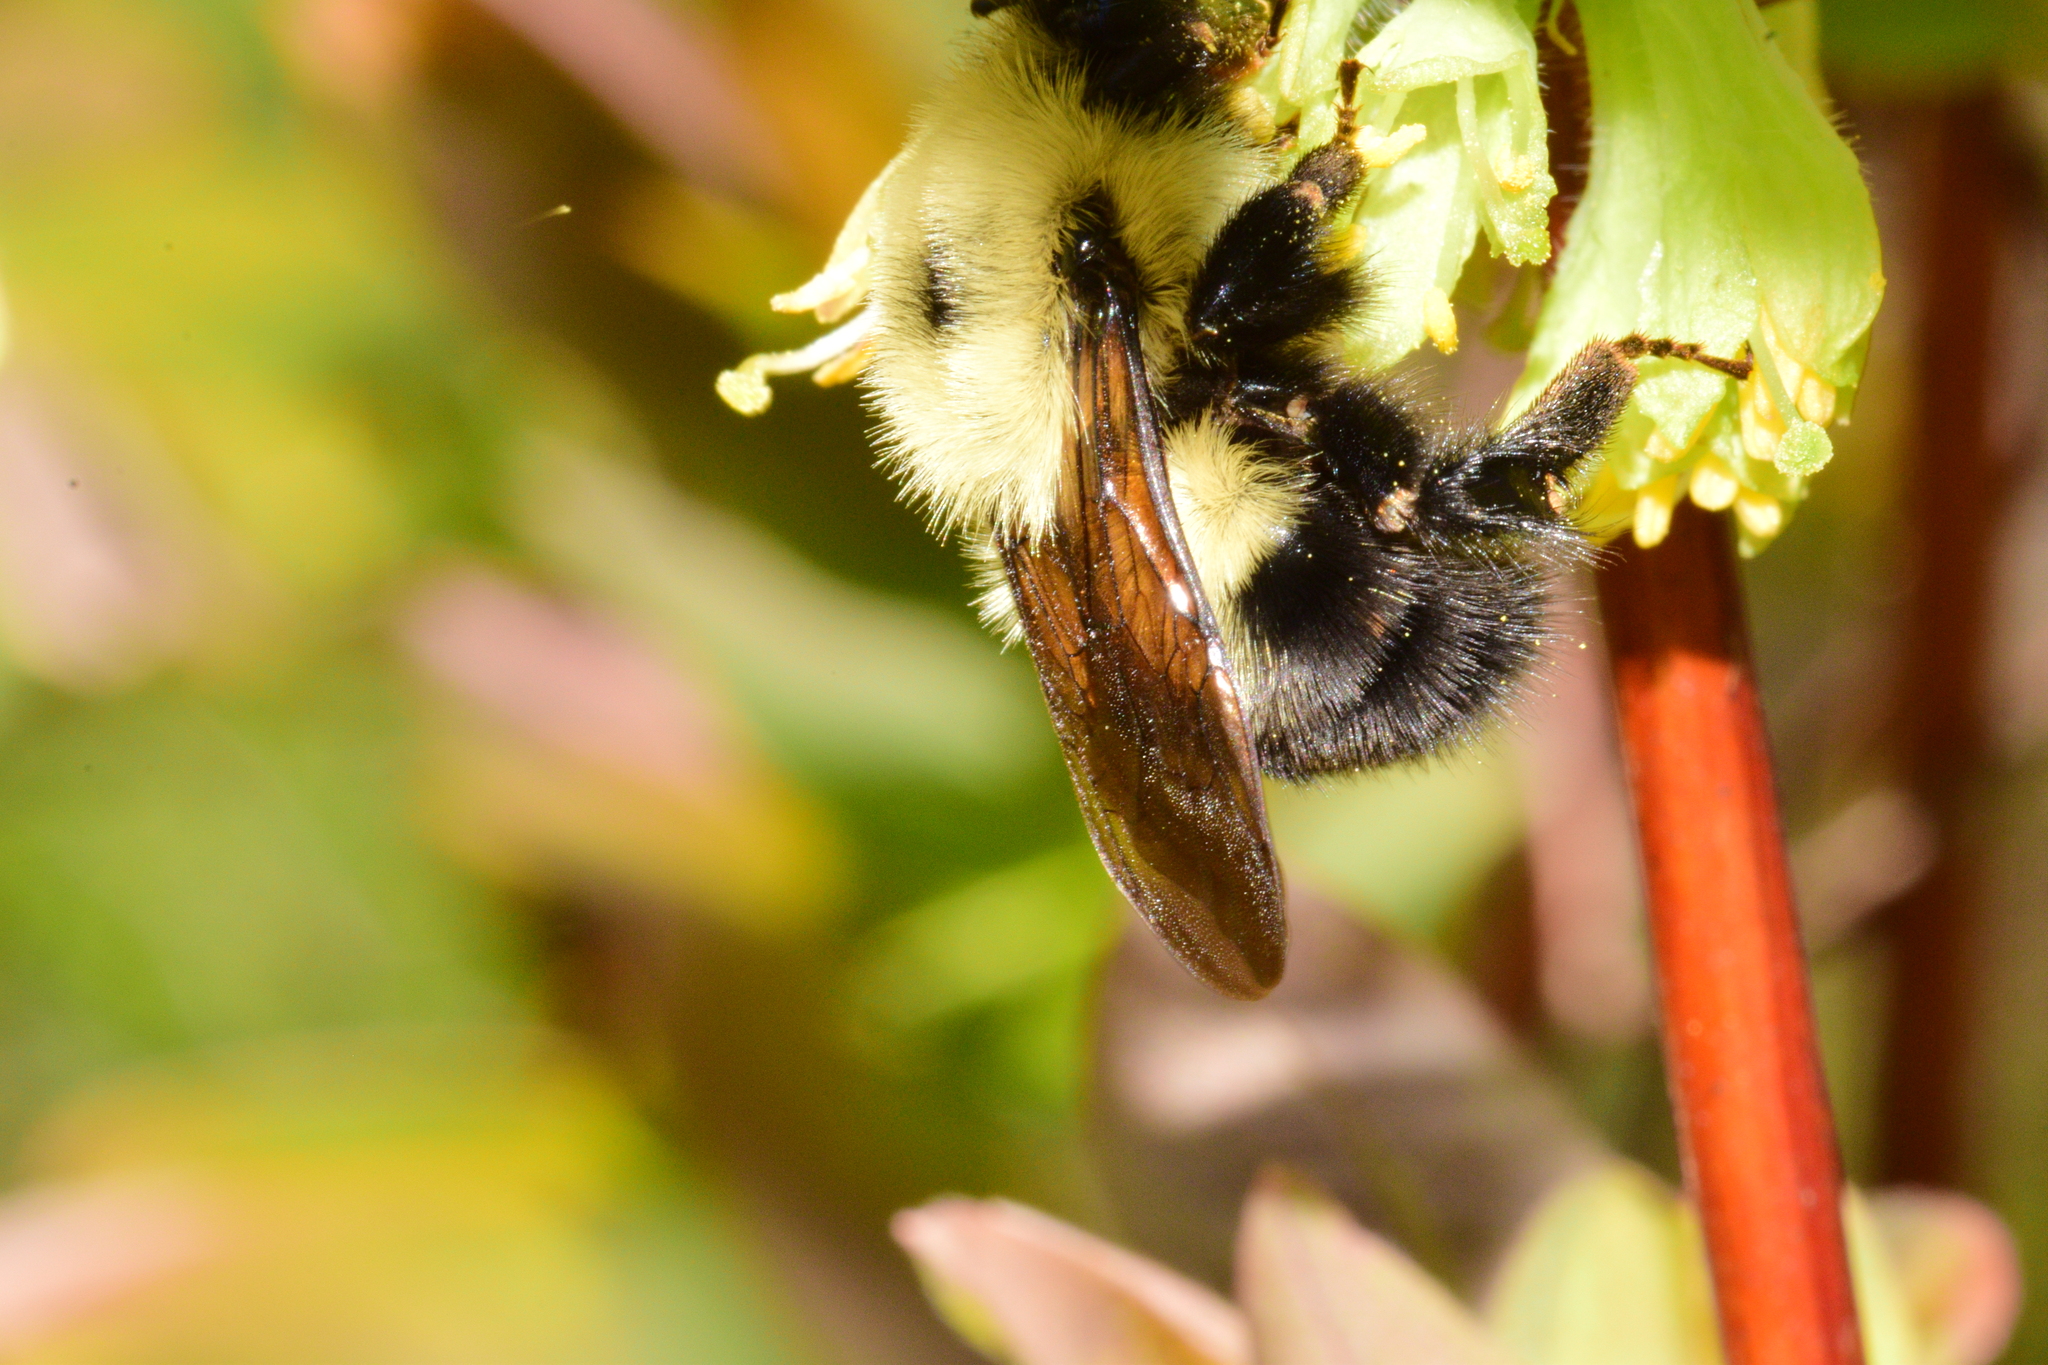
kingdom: Animalia
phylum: Arthropoda
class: Insecta
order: Hymenoptera
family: Apidae
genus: Bombus
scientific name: Bombus bimaculatus
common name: Two-spotted bumble bee
